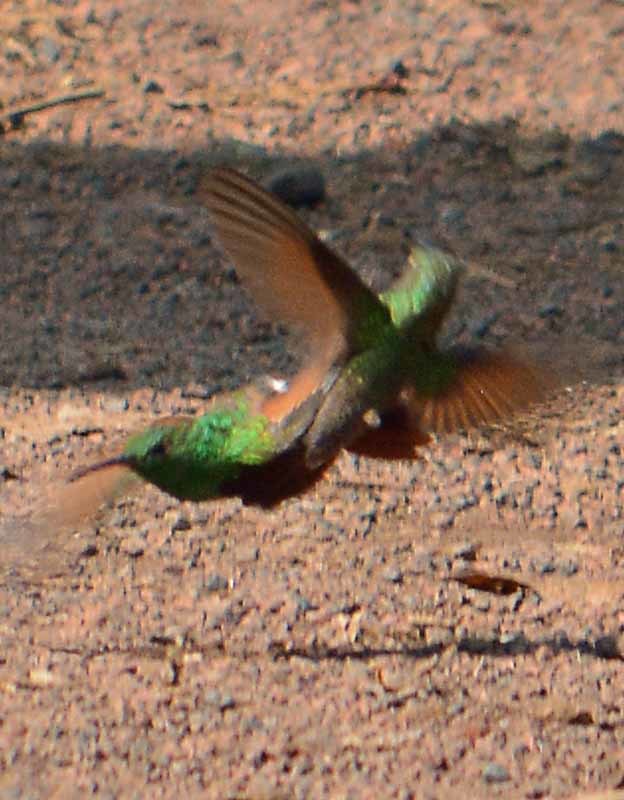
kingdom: Animalia
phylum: Chordata
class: Aves
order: Apodiformes
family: Trochilidae
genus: Saucerottia
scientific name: Saucerottia beryllina
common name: Berylline hummingbird
